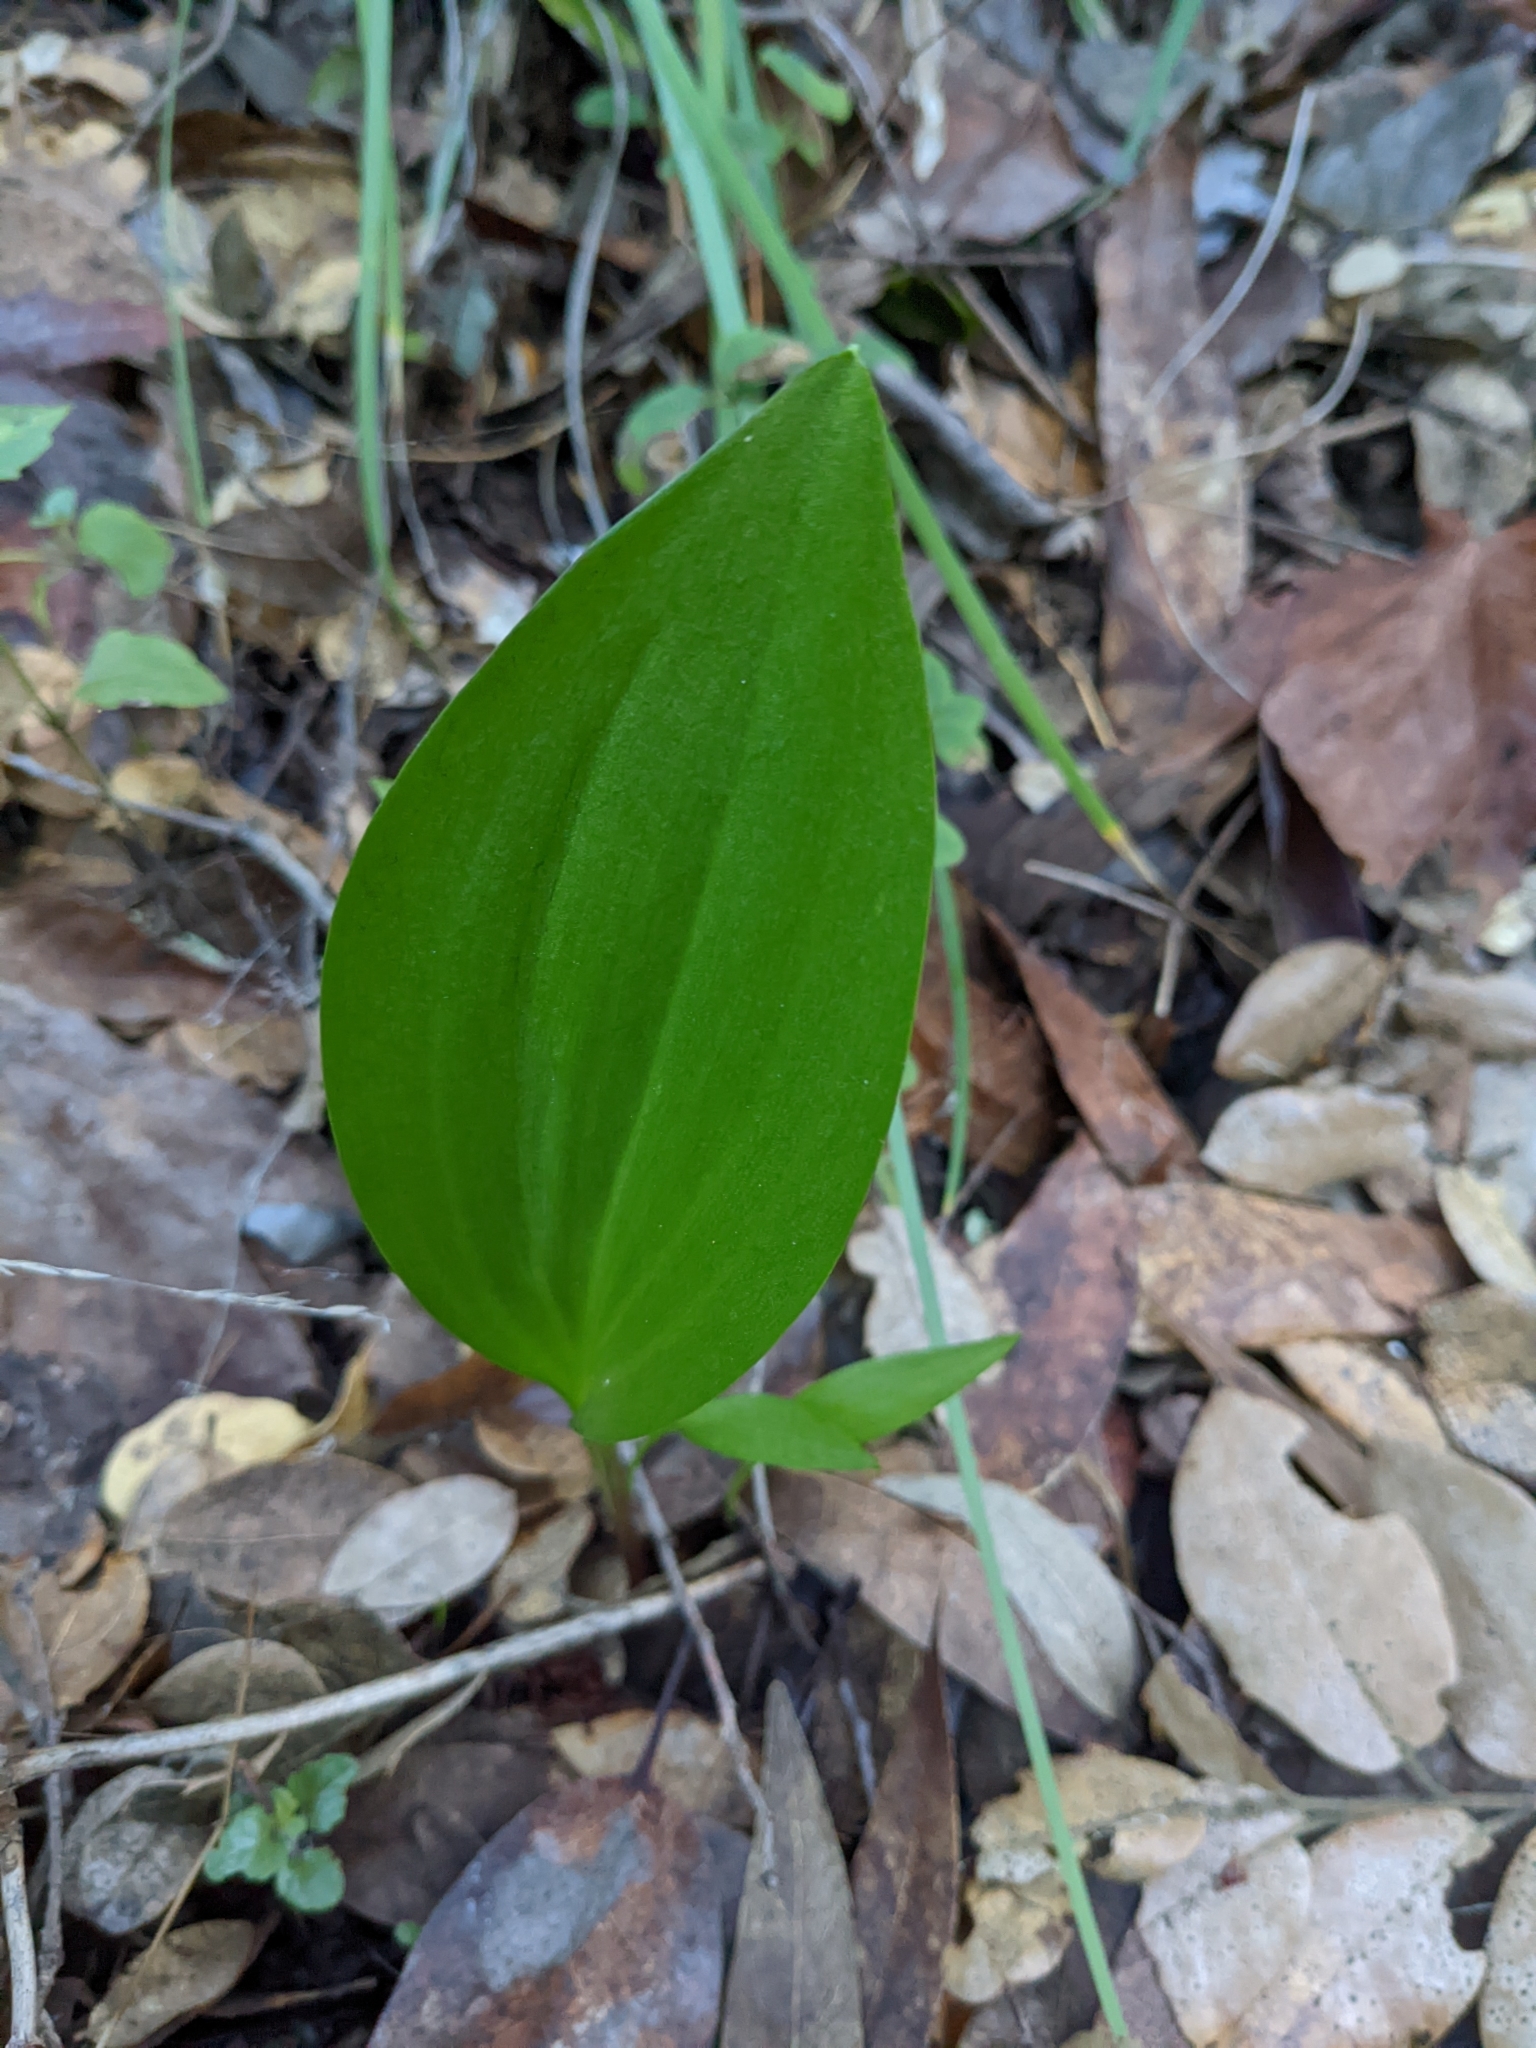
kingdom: Plantae
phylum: Tracheophyta
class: Liliopsida
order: Liliales
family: Liliaceae
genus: Fritillaria
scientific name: Fritillaria affinis
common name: Ojai fritillary
